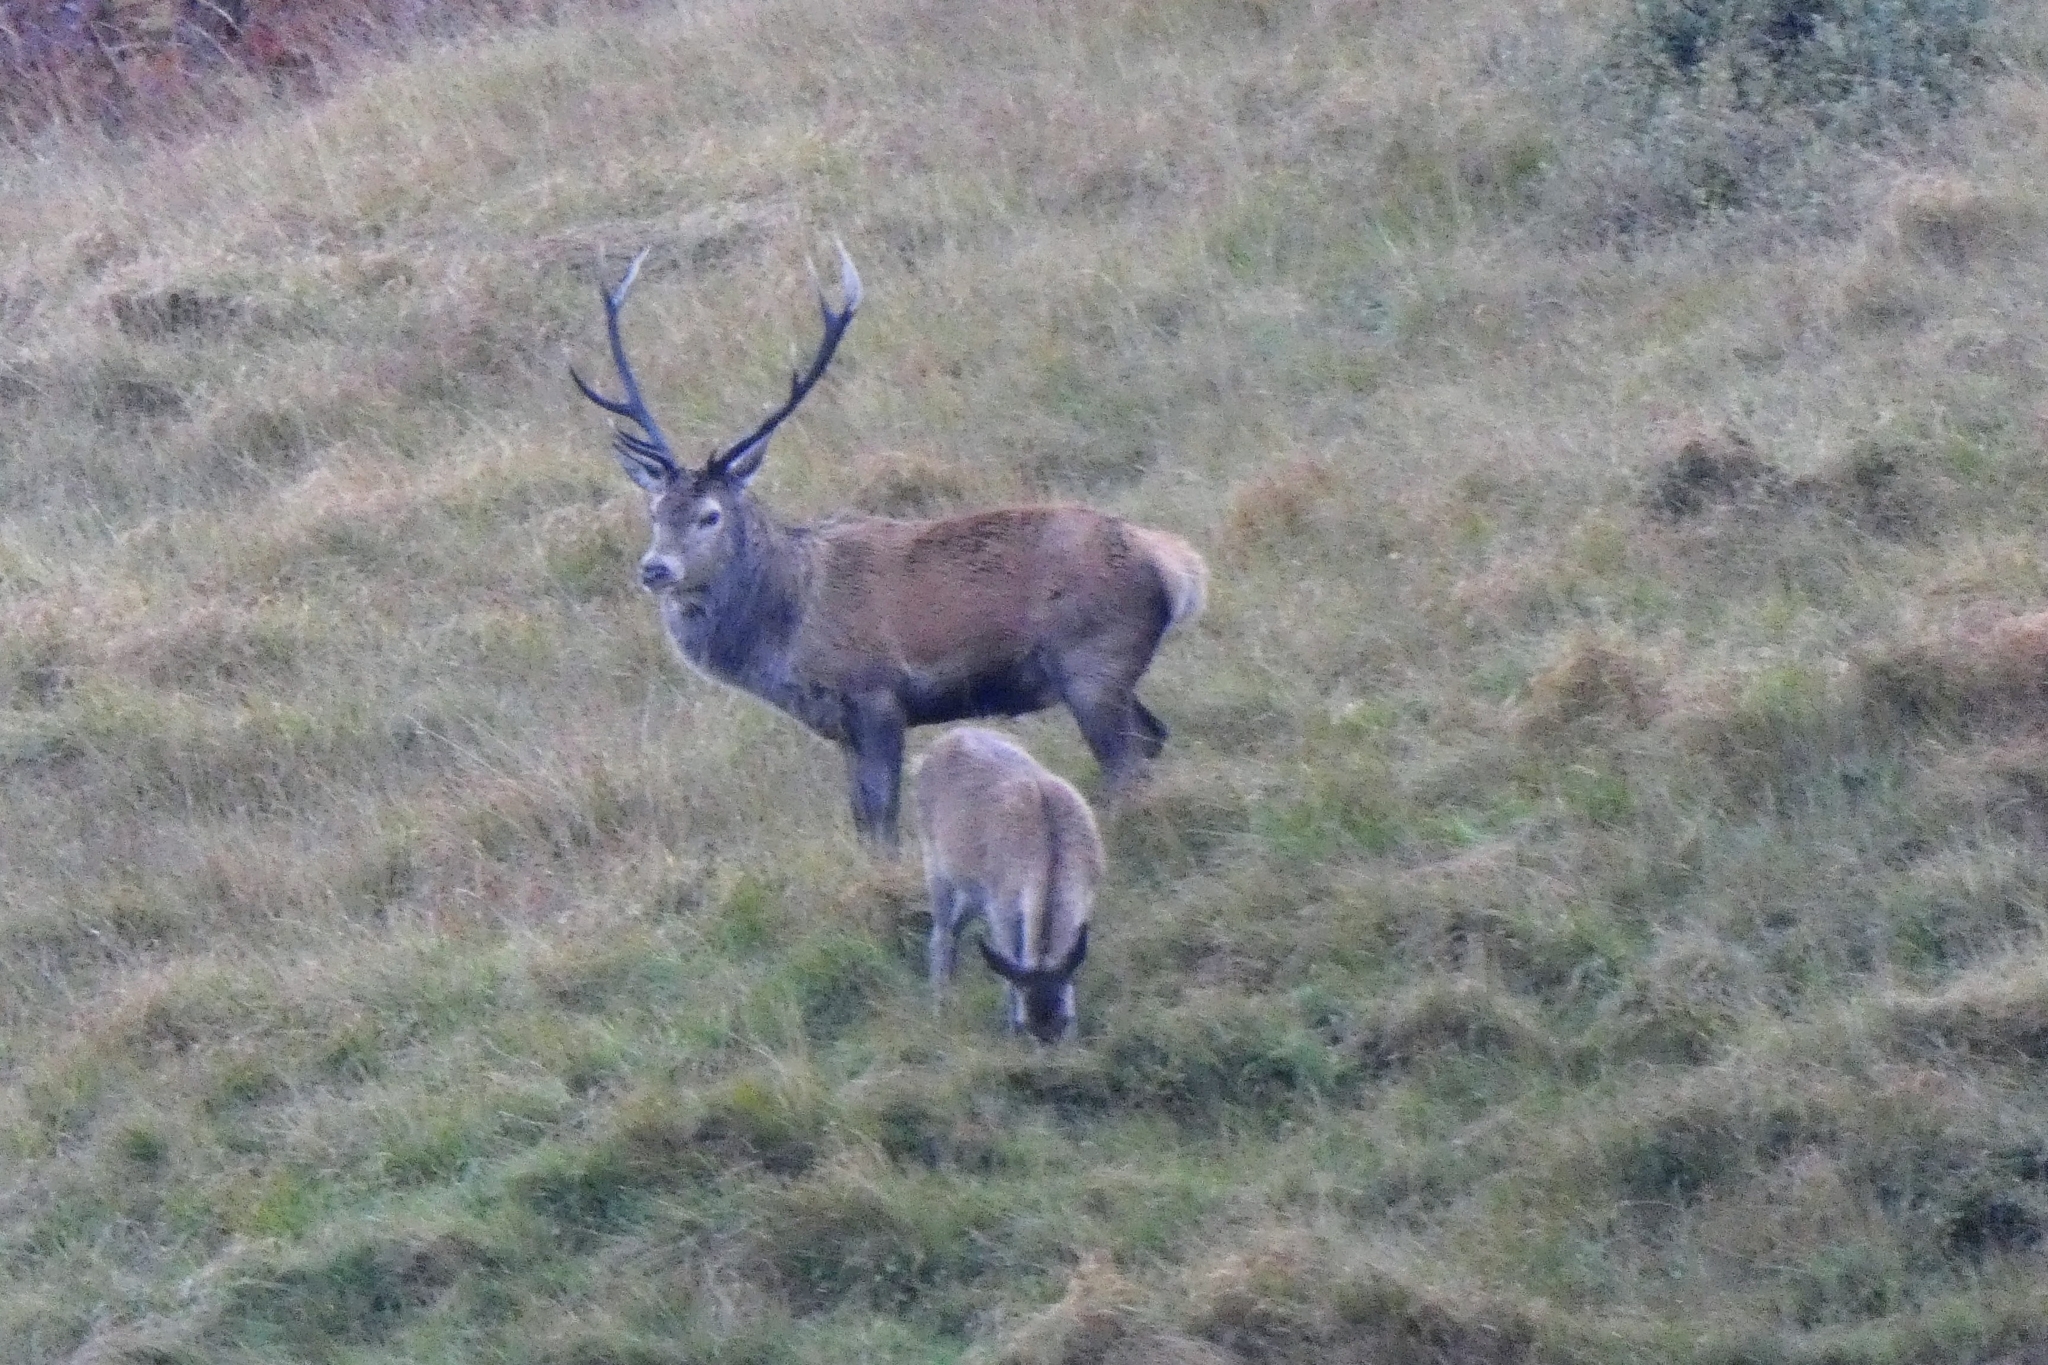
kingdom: Animalia
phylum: Chordata
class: Mammalia
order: Artiodactyla
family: Cervidae
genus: Cervus
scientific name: Cervus elaphus
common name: Red deer
